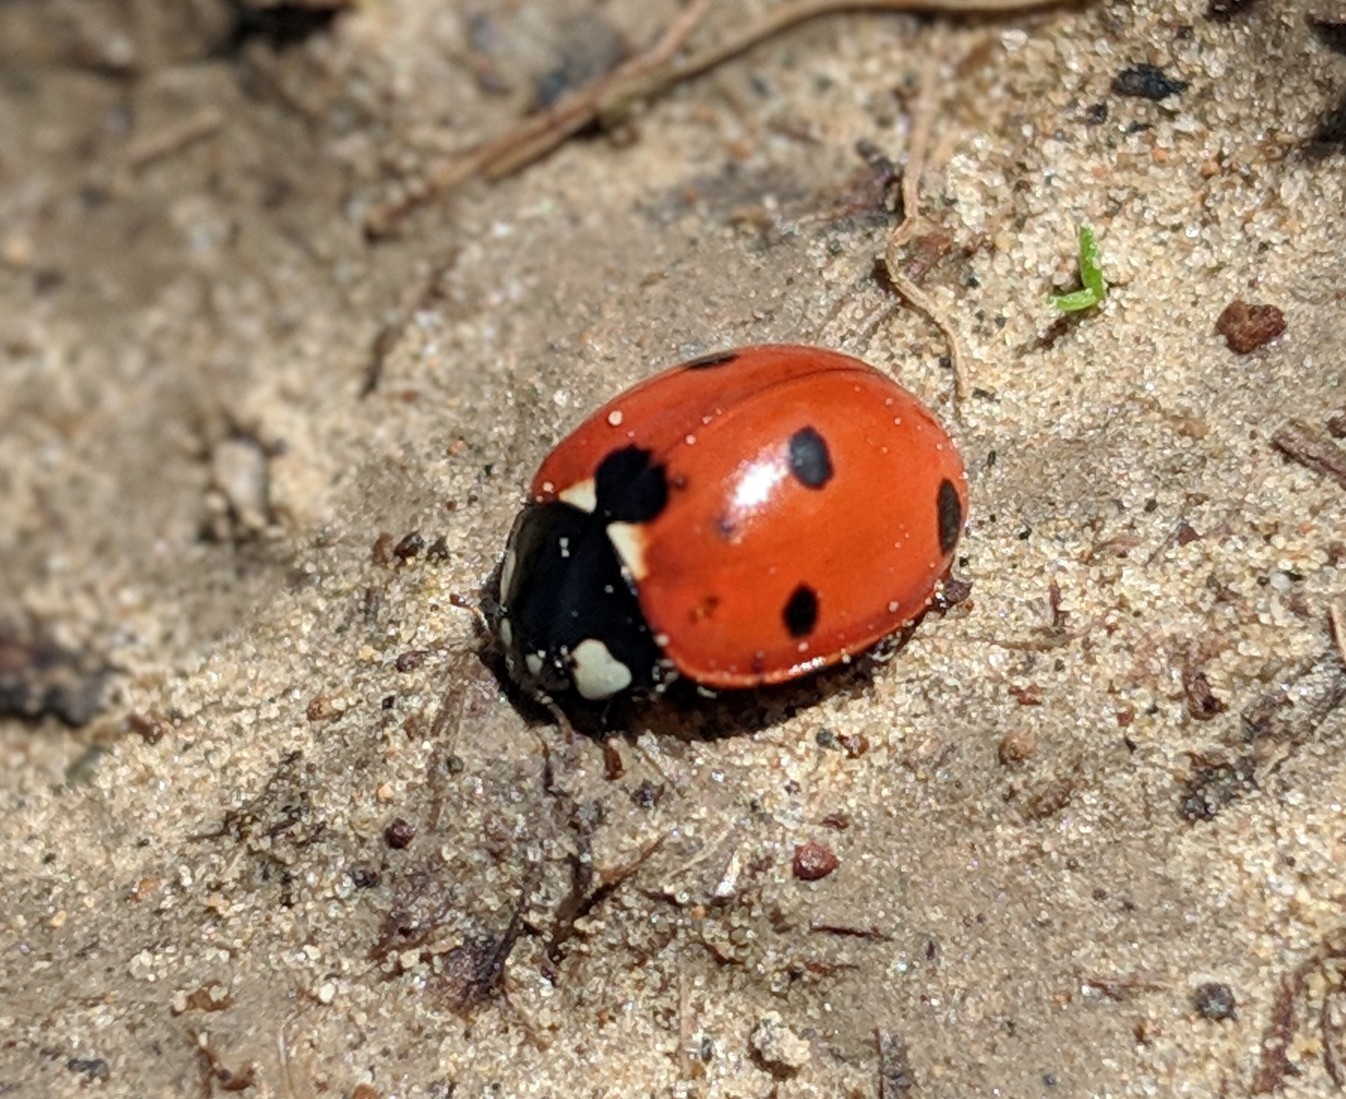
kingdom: Animalia
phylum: Arthropoda
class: Insecta
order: Coleoptera
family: Coccinellidae
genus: Coccinella
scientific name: Coccinella septempunctata
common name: Sevenspotted lady beetle
